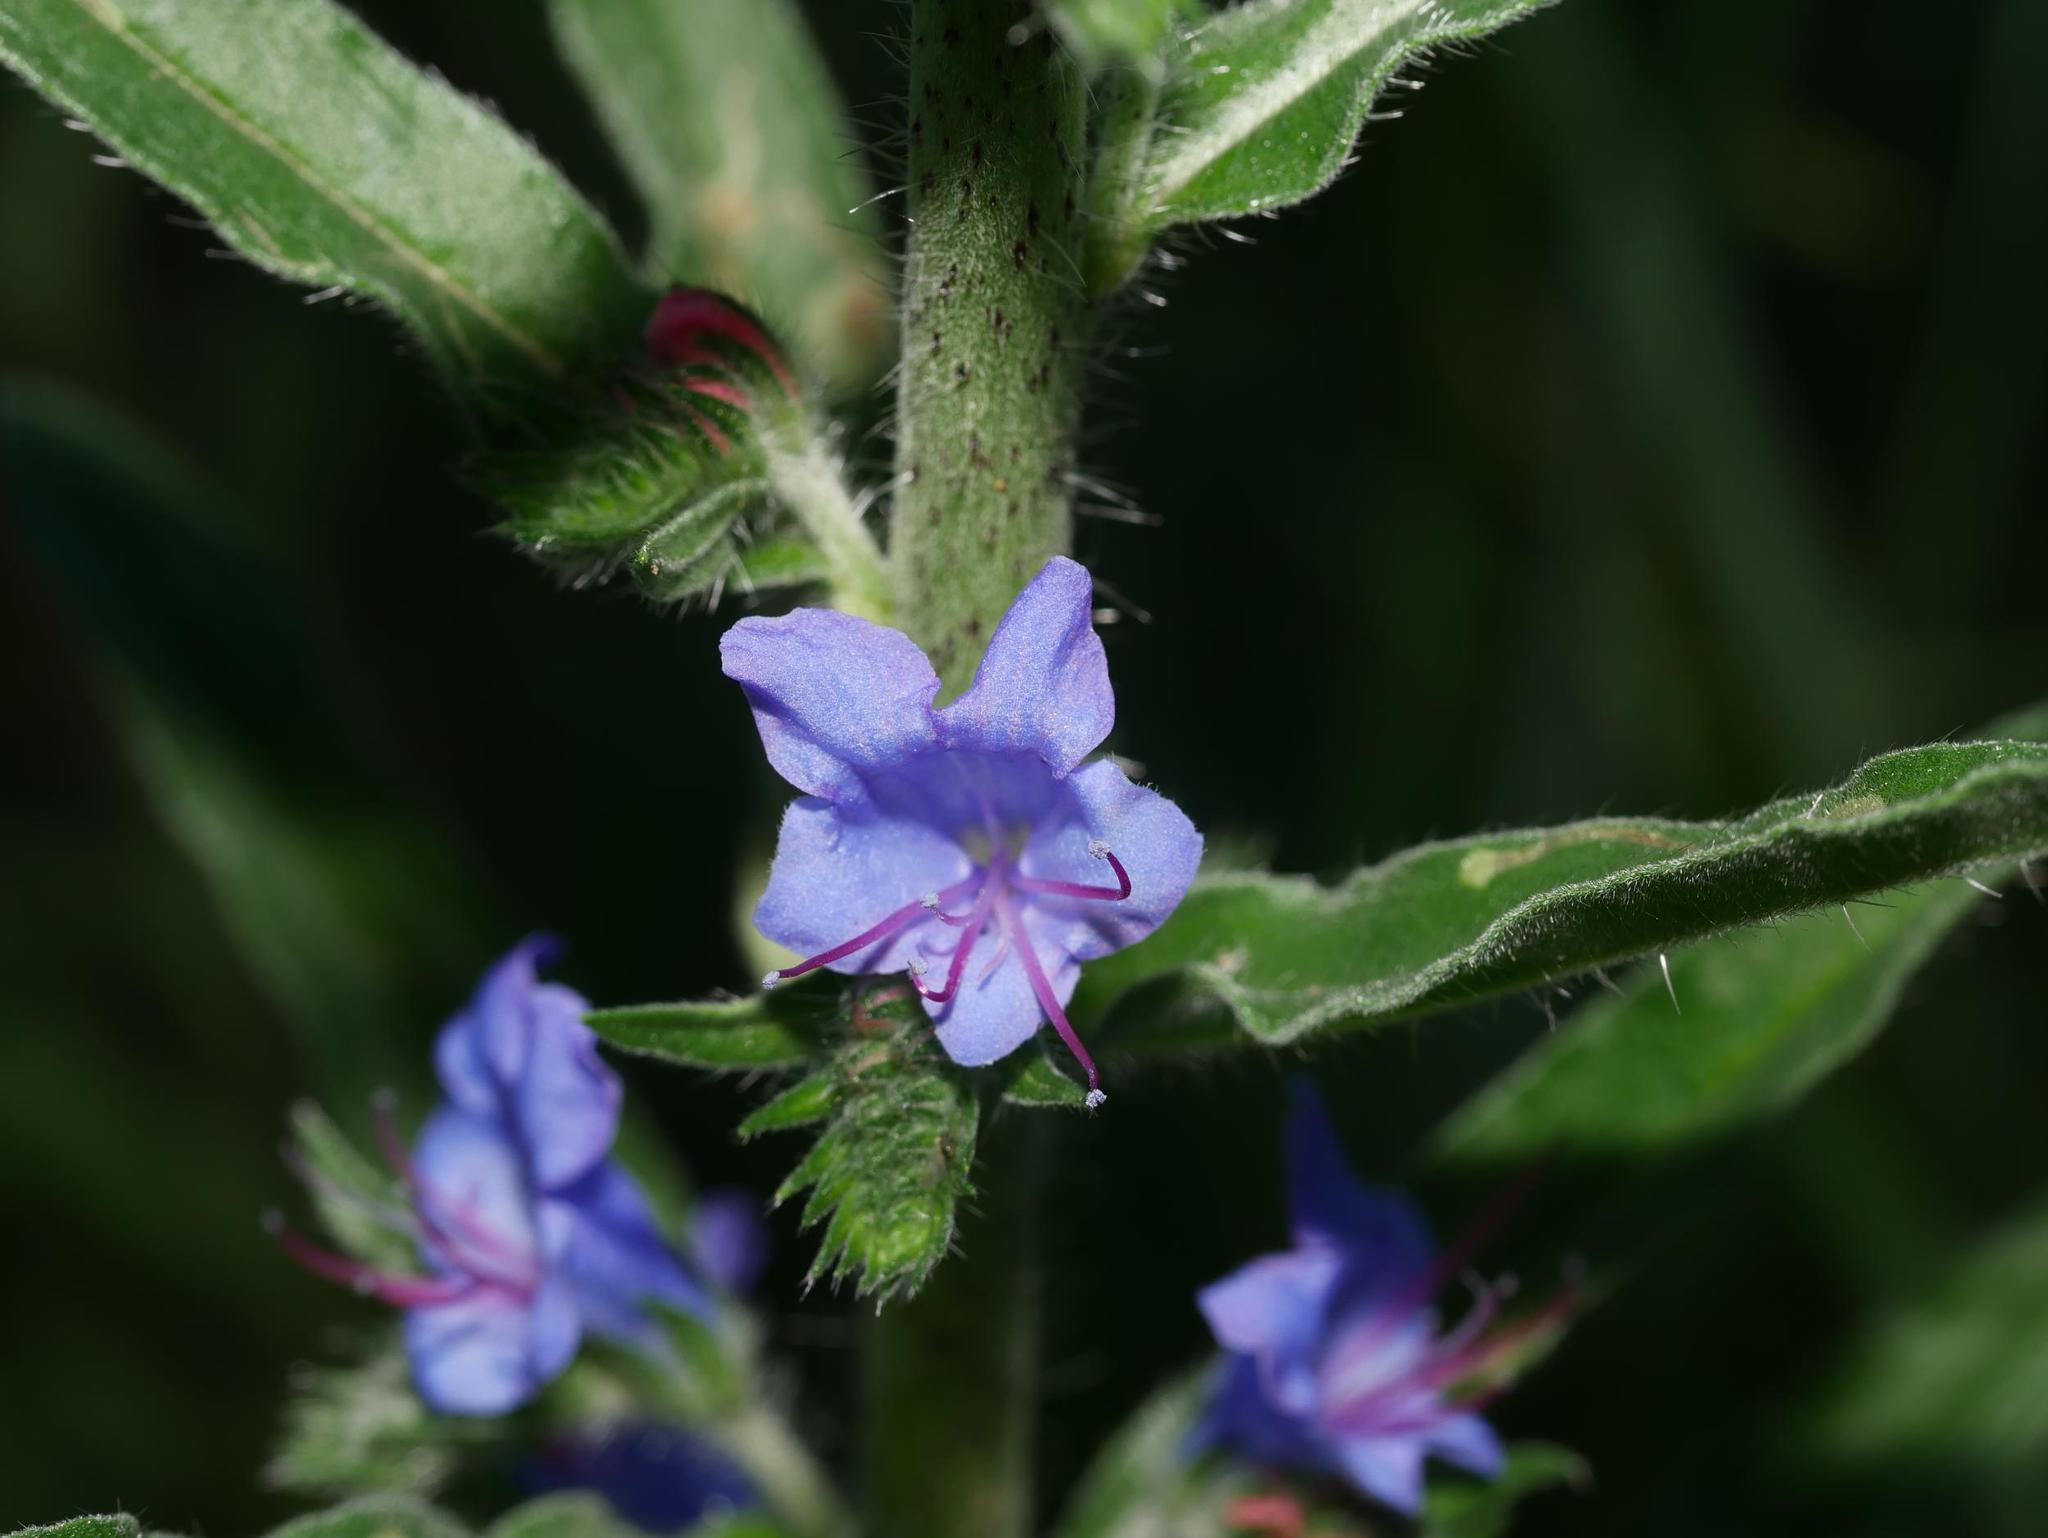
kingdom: Plantae
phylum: Tracheophyta
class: Magnoliopsida
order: Boraginales
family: Boraginaceae
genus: Echium
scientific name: Echium vulgare
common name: Common viper's bugloss
